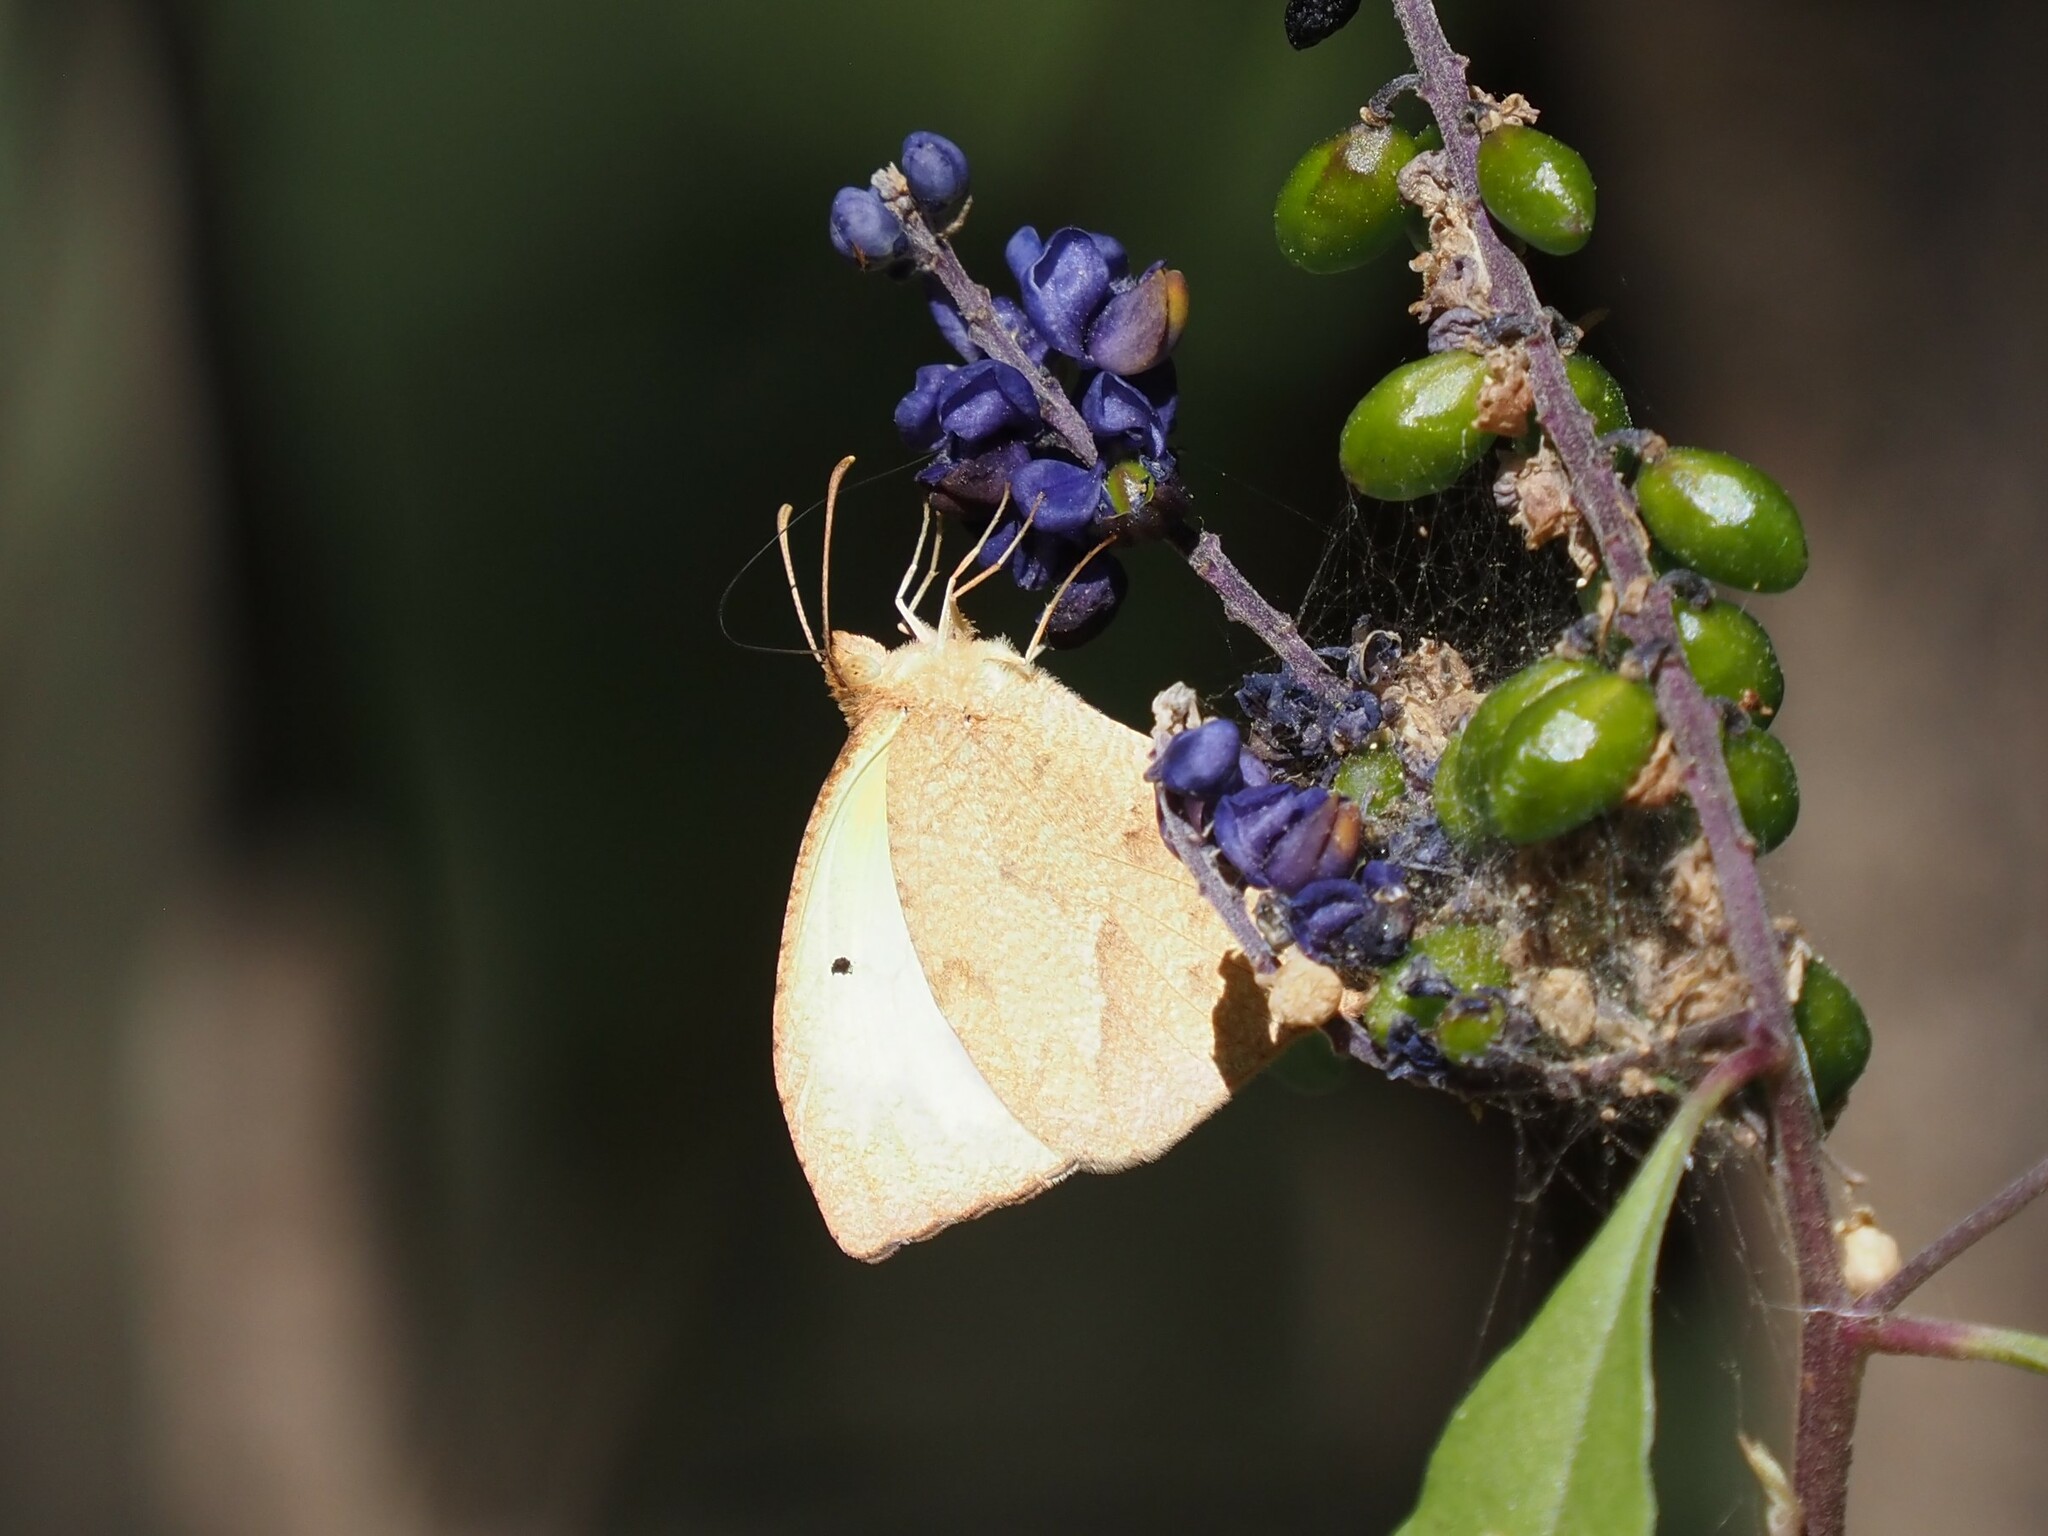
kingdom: Animalia
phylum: Arthropoda
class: Insecta
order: Lepidoptera
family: Pieridae
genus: Abaeis
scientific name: Abaeis mexicana
